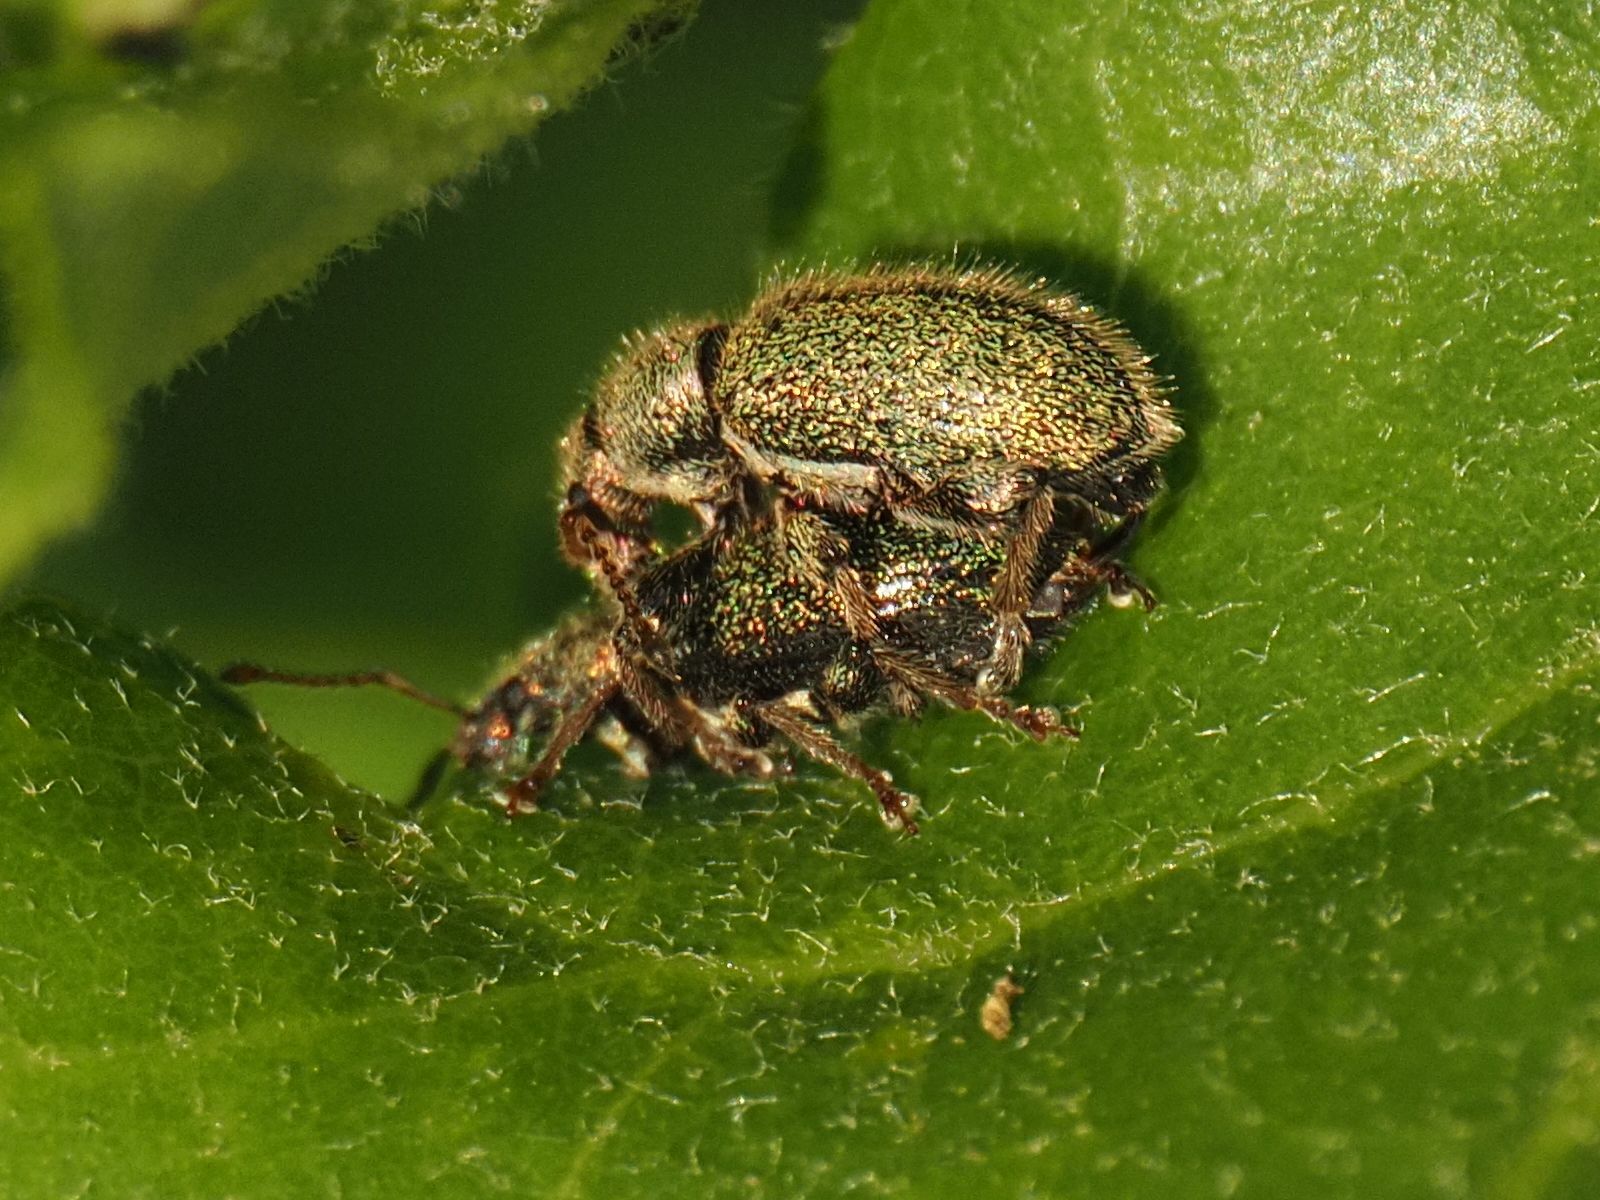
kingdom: Animalia
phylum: Arthropoda
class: Insecta
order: Coleoptera
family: Curculionidae
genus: Phyllobius
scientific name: Phyllobius betulinus
